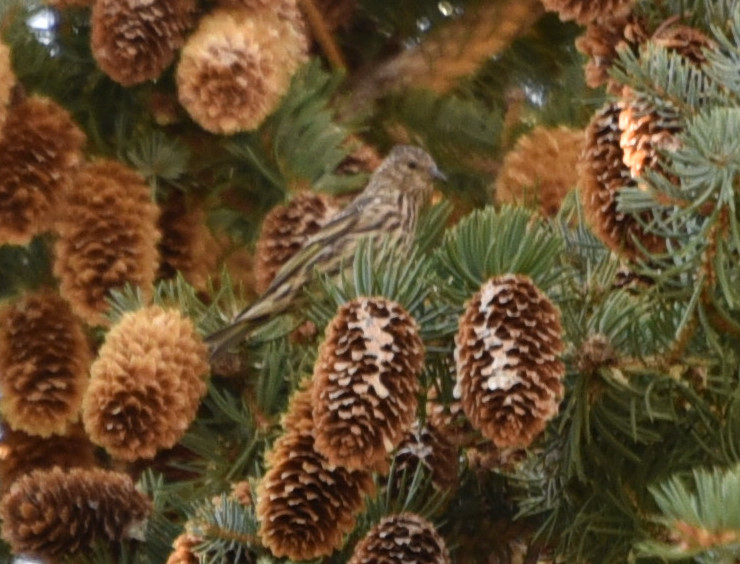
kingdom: Animalia
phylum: Chordata
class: Aves
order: Passeriformes
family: Fringillidae
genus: Spinus
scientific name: Spinus pinus
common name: Pine siskin
